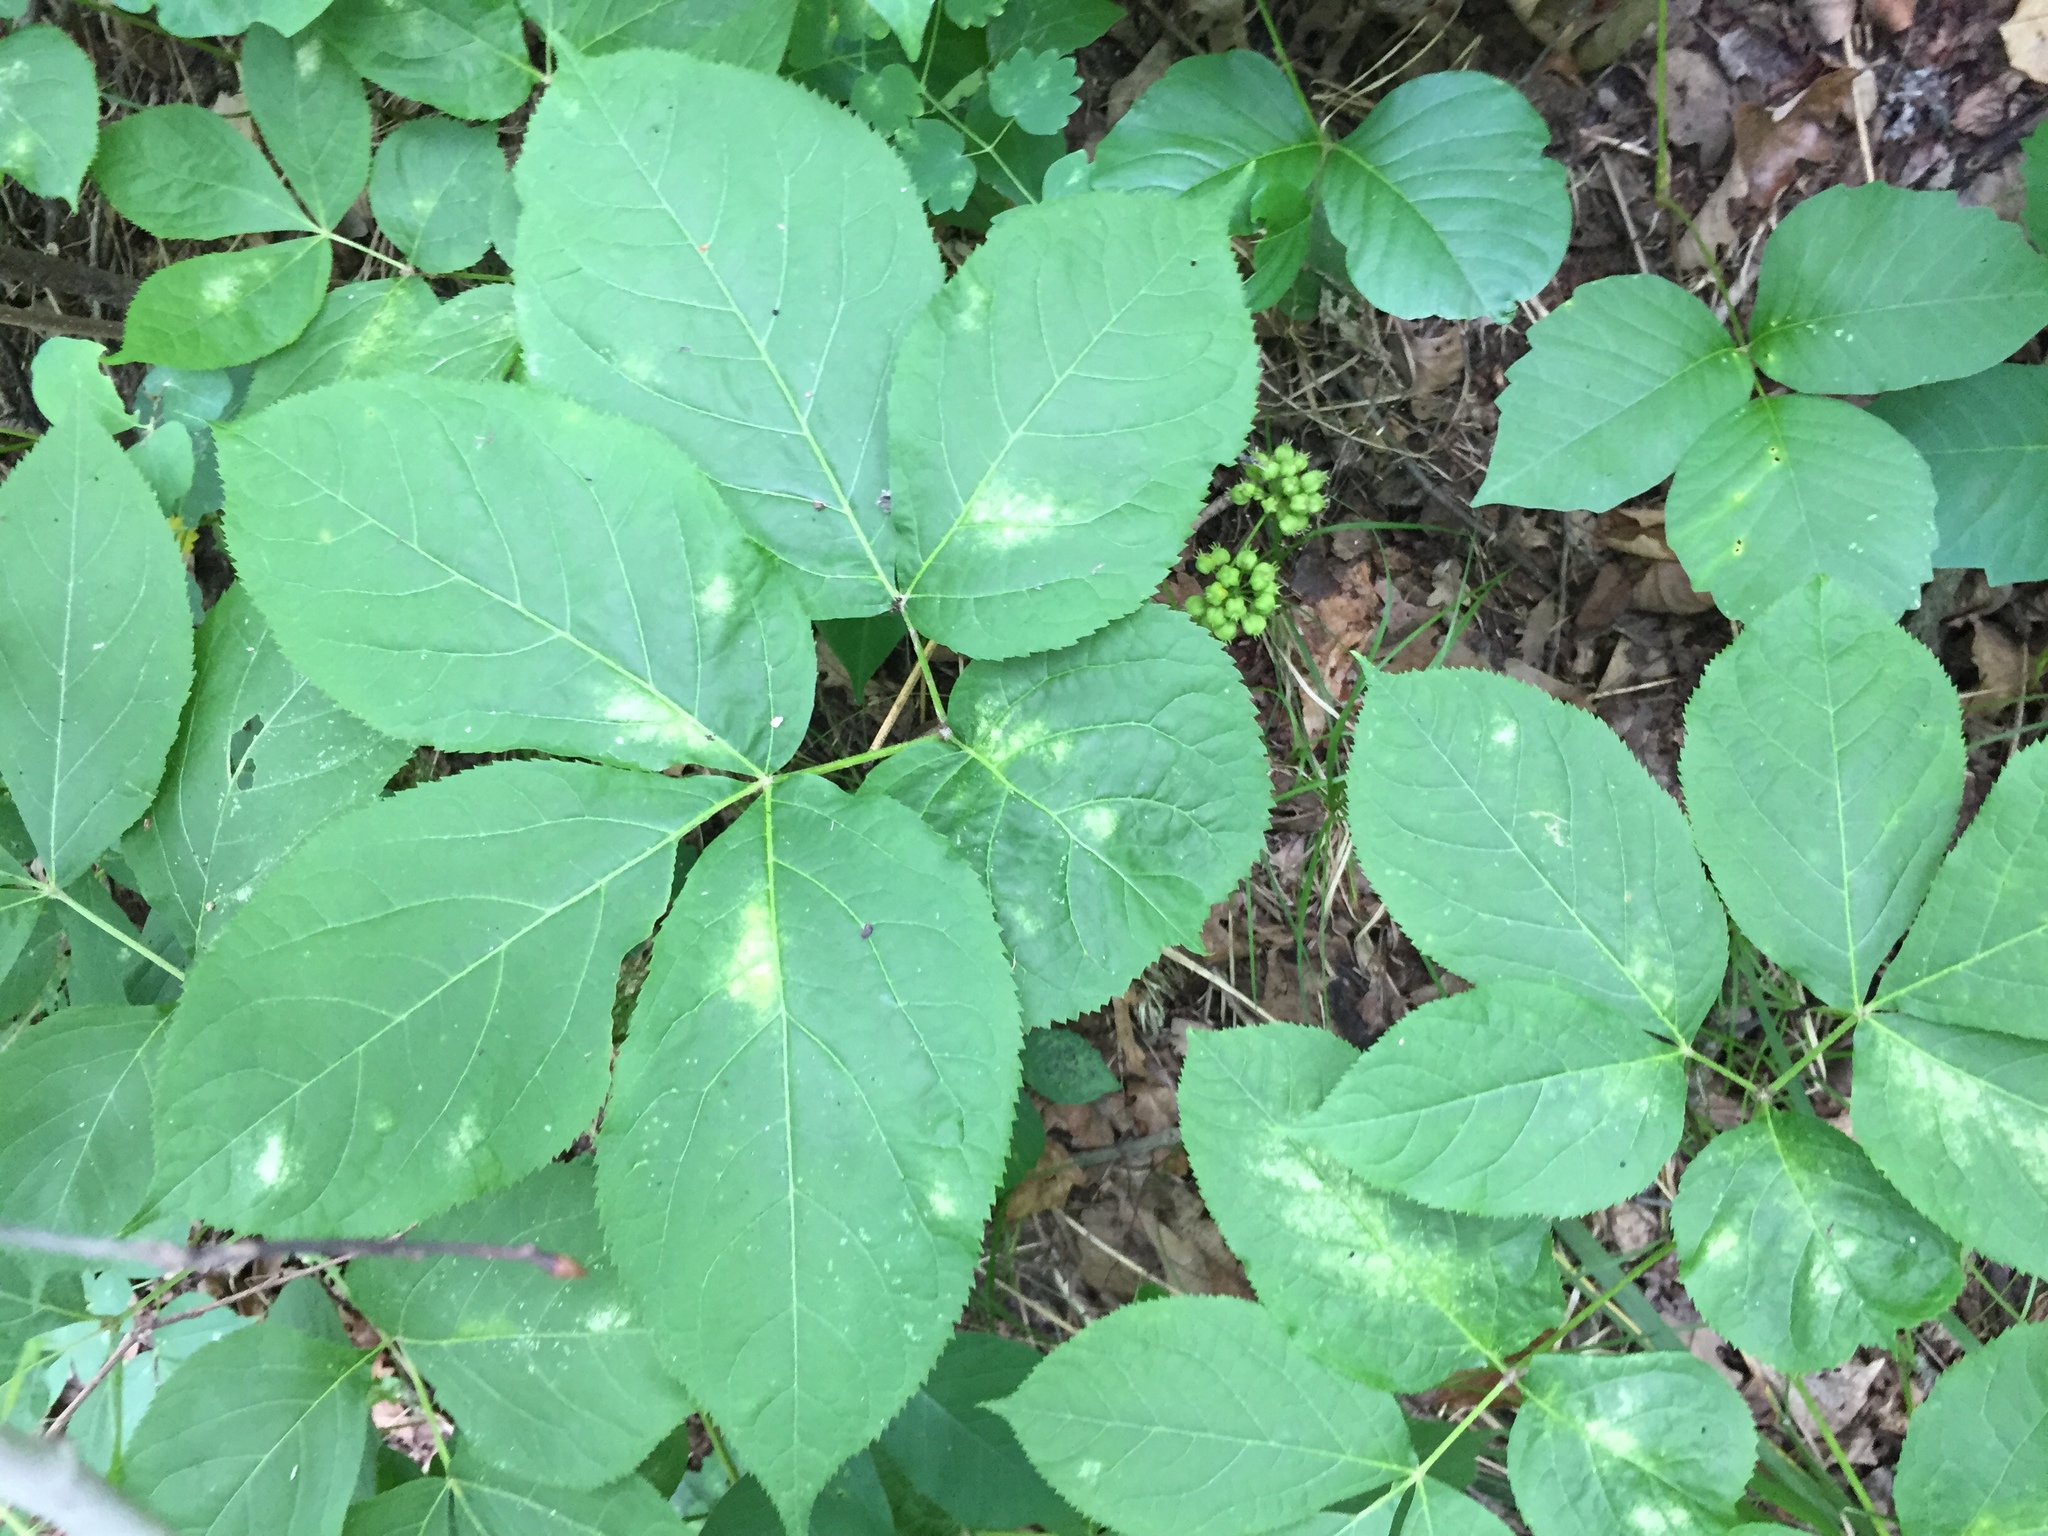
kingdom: Plantae
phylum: Tracheophyta
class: Magnoliopsida
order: Apiales
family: Araliaceae
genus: Aralia
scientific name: Aralia nudicaulis
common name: Wild sarsaparilla
